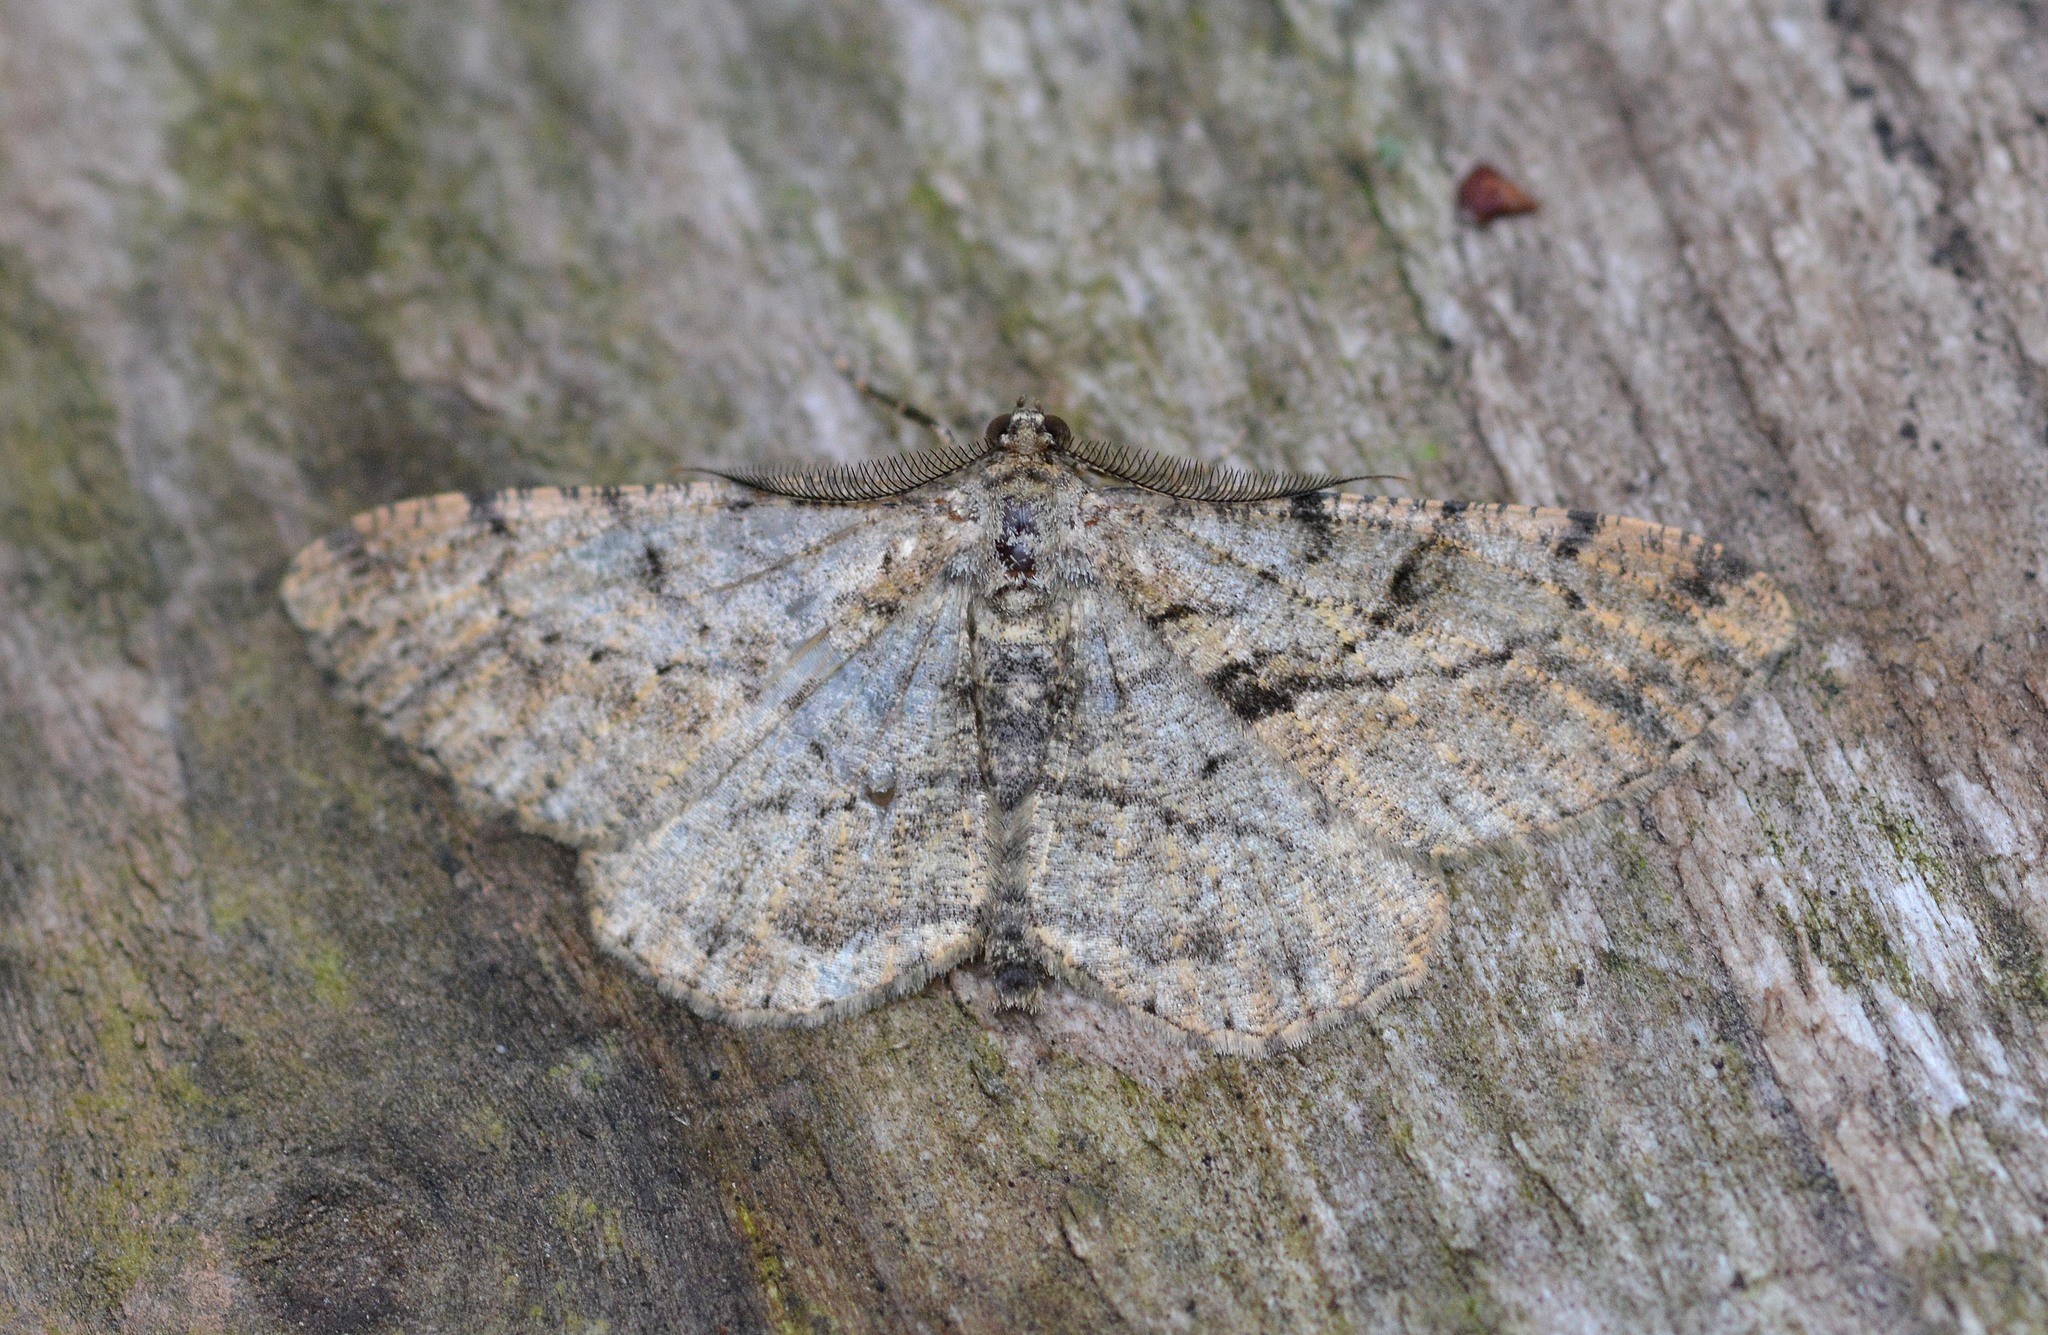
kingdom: Animalia
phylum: Arthropoda
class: Insecta
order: Lepidoptera
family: Geometridae
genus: Peribatodes
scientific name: Peribatodes rhomboidaria
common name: Willow beauty
